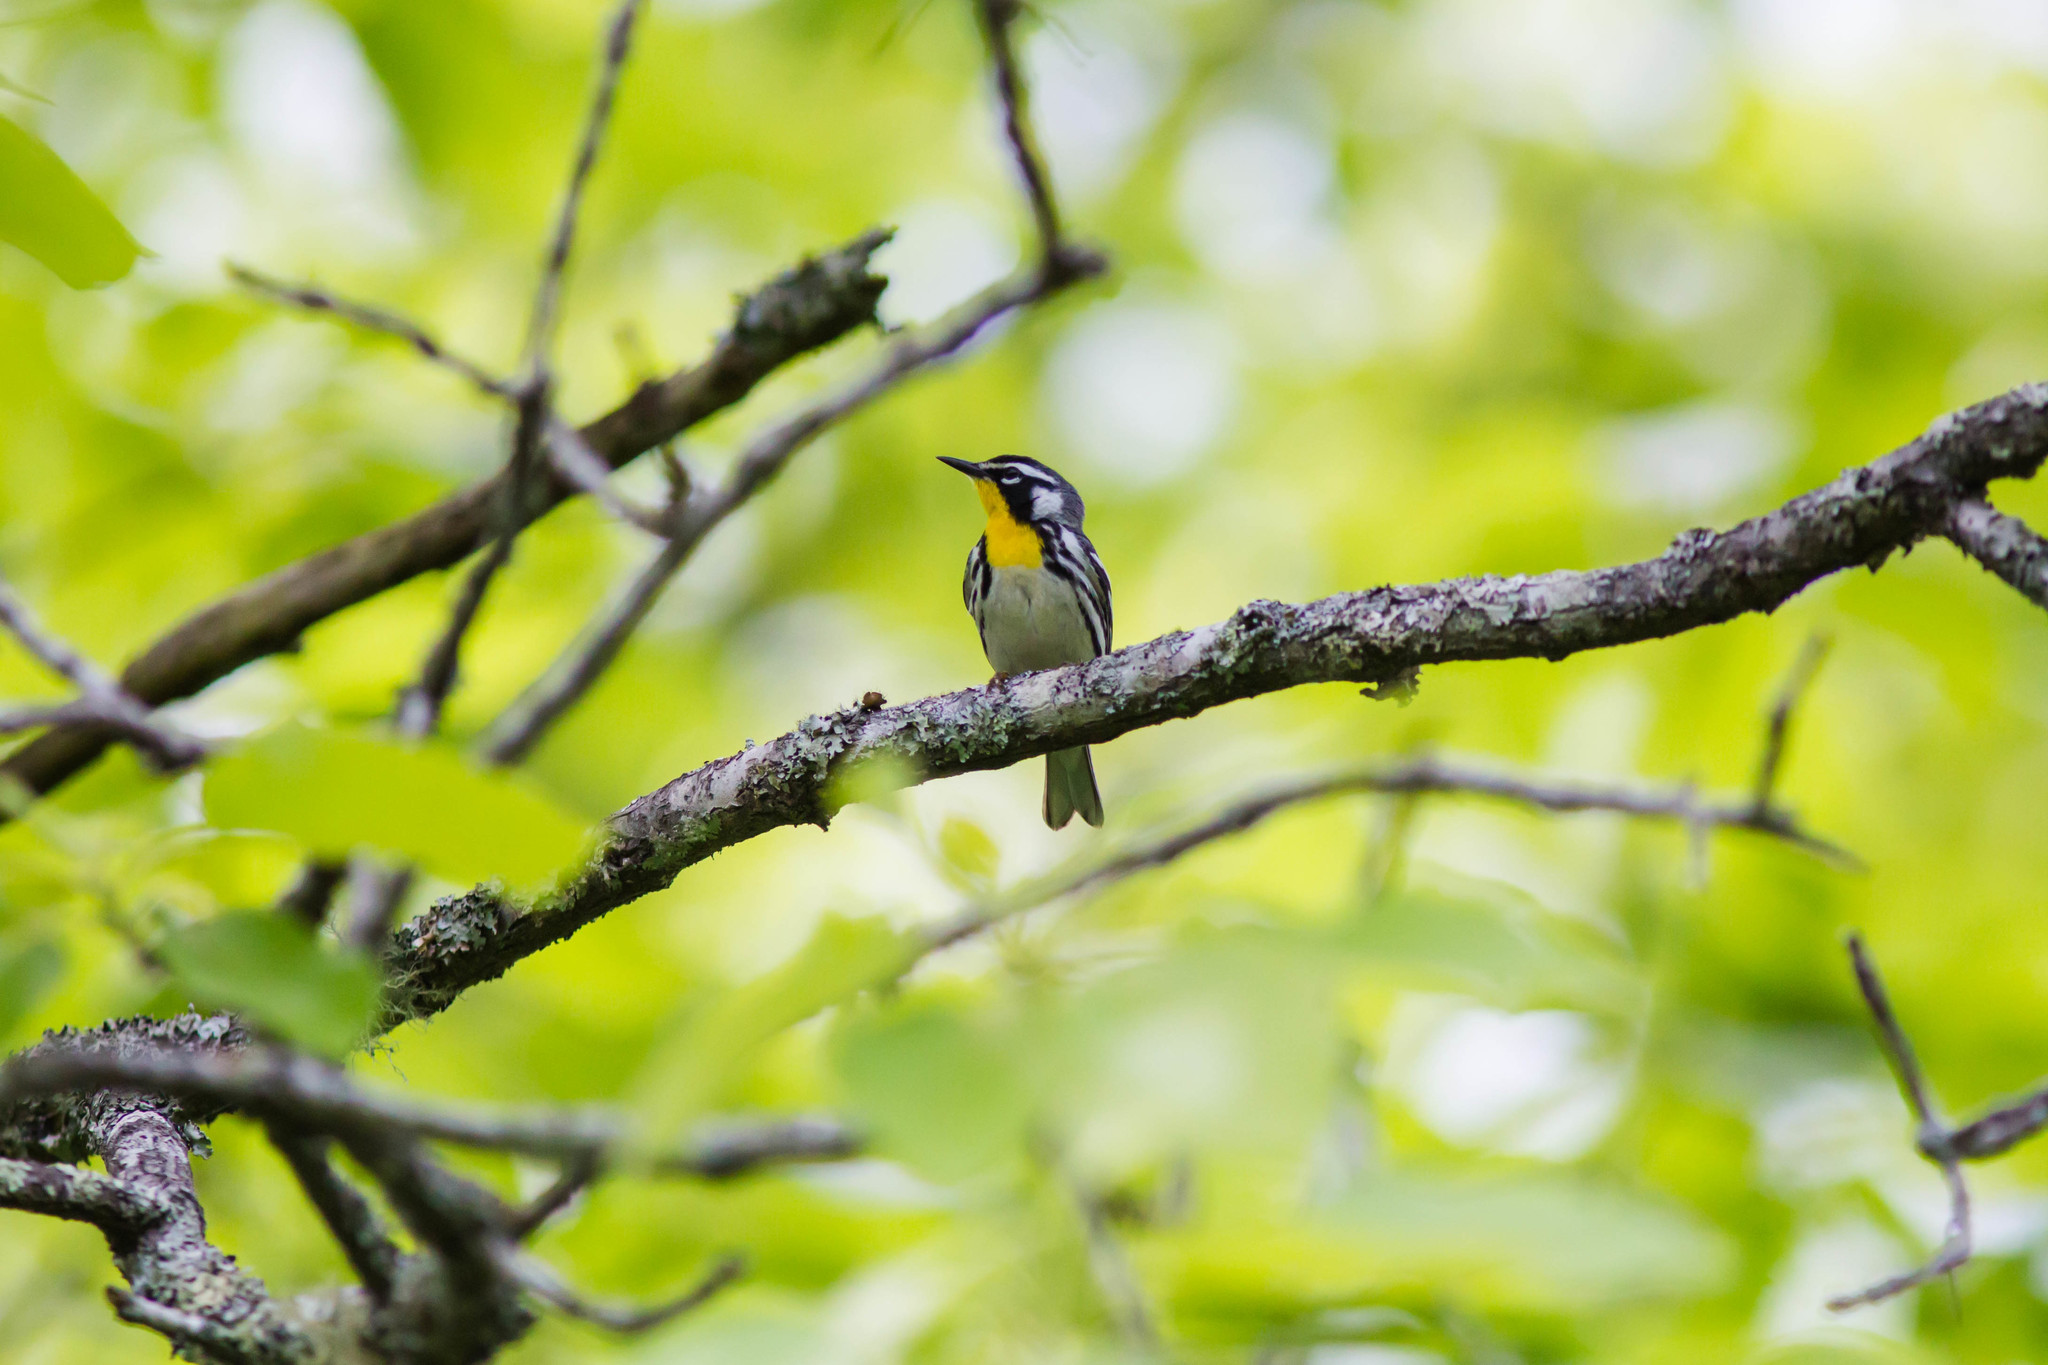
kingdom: Animalia
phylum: Chordata
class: Aves
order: Passeriformes
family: Parulidae
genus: Setophaga
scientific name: Setophaga dominica
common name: Yellow-throated warbler
